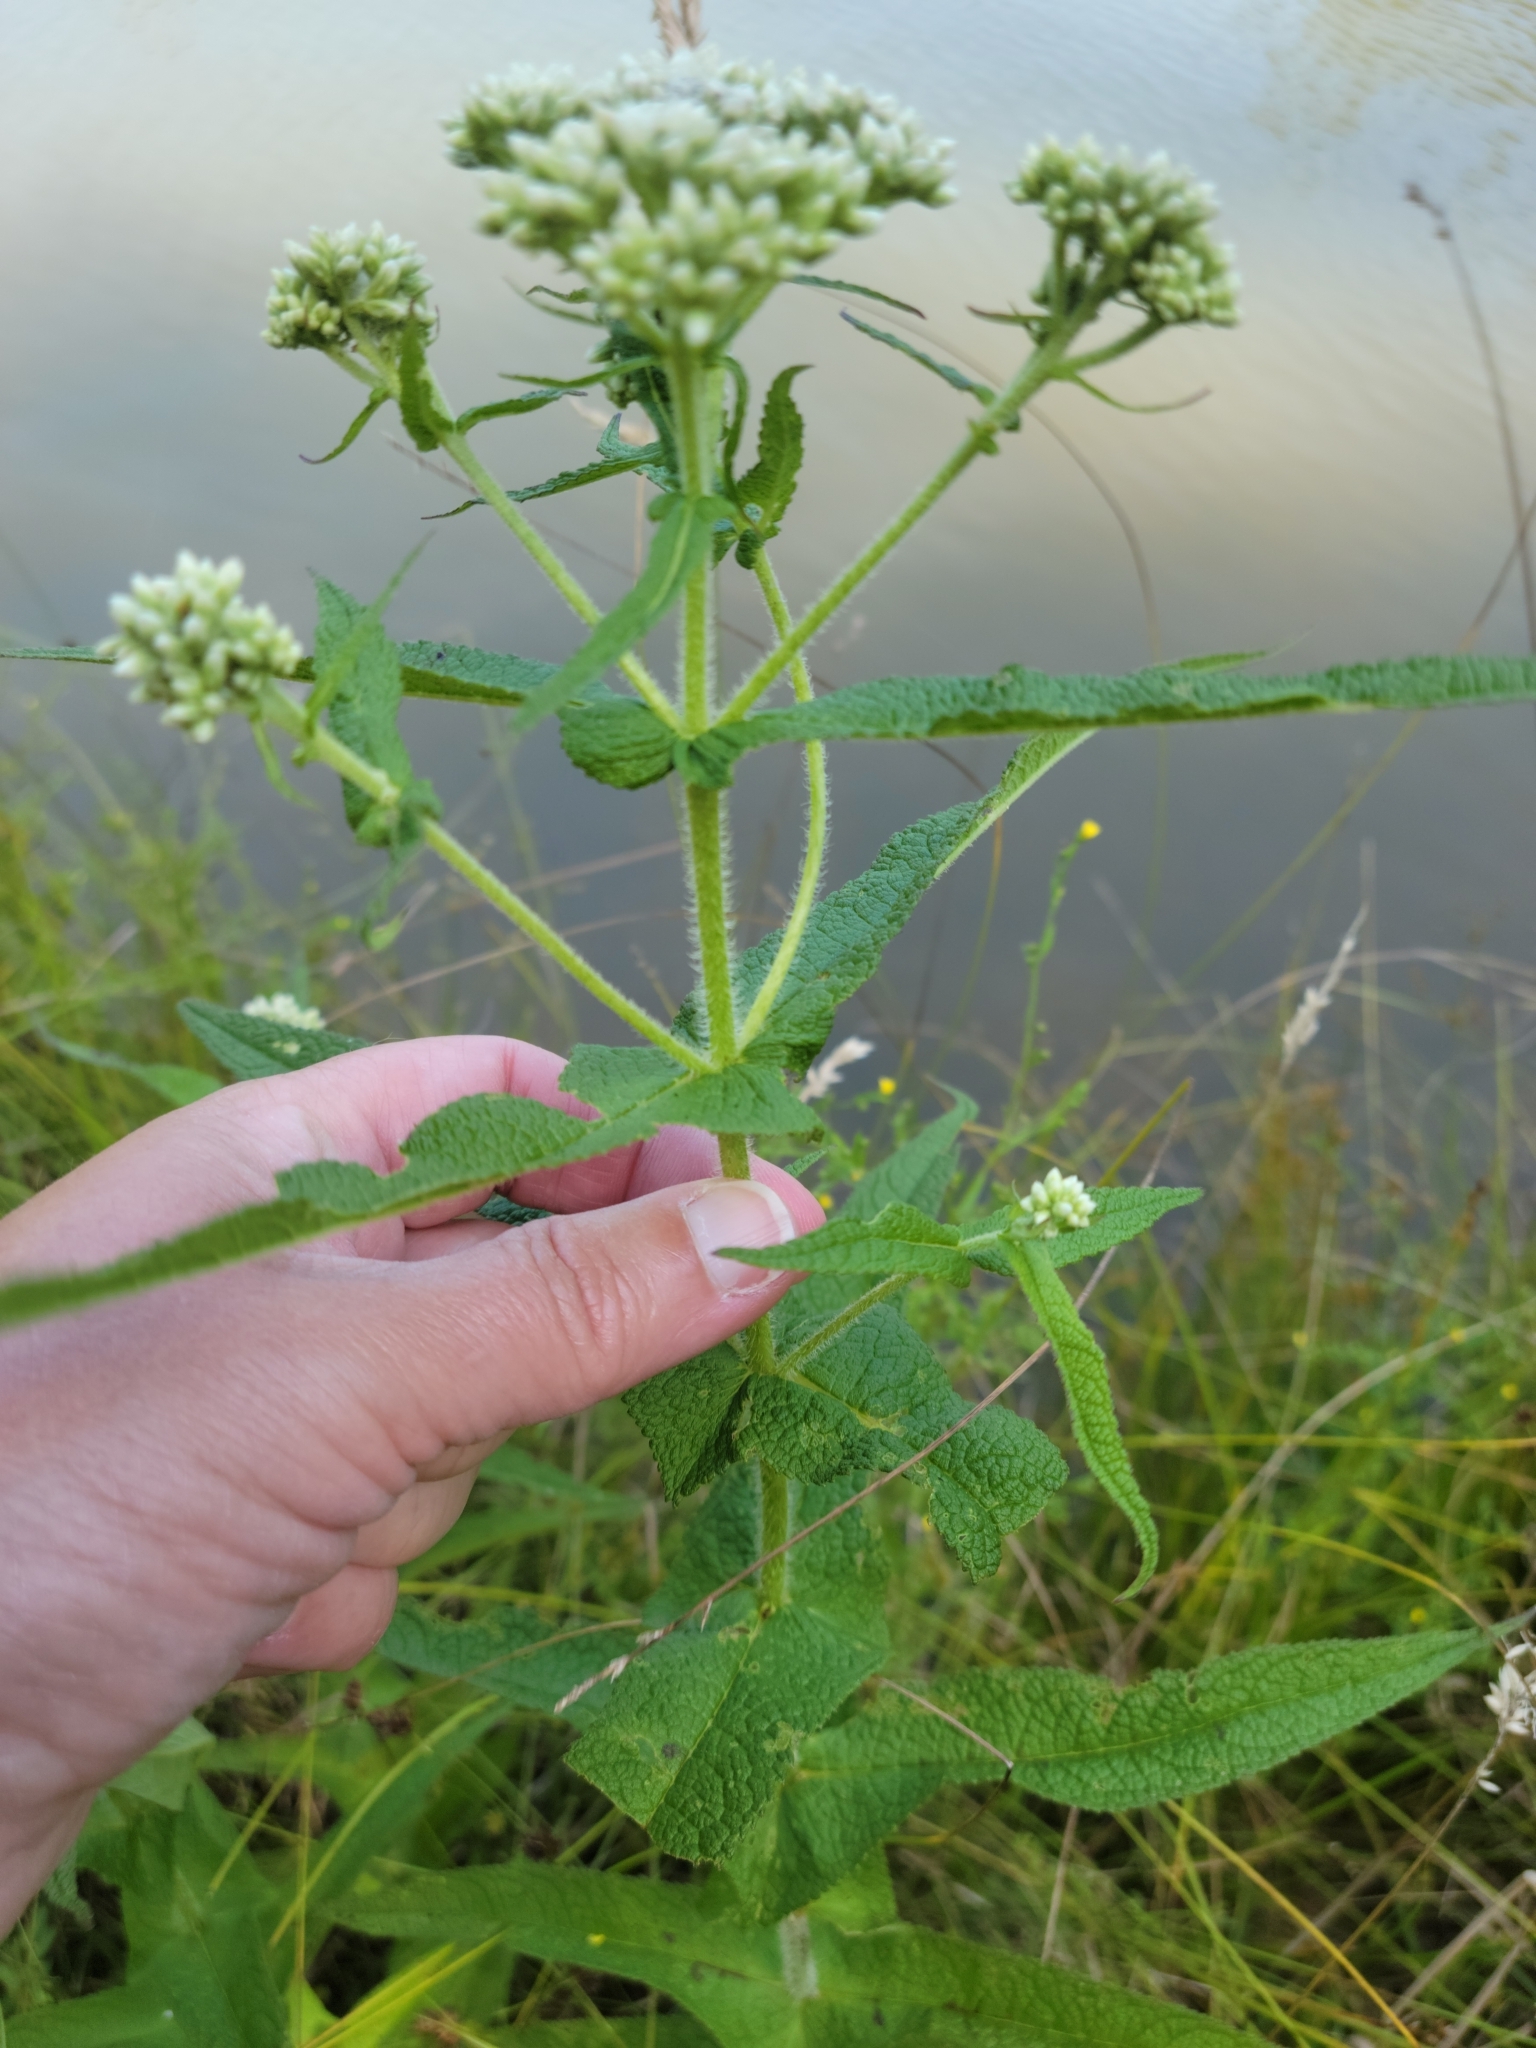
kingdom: Plantae
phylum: Tracheophyta
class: Magnoliopsida
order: Asterales
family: Asteraceae
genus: Eupatorium
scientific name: Eupatorium perfoliatum
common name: Boneset
